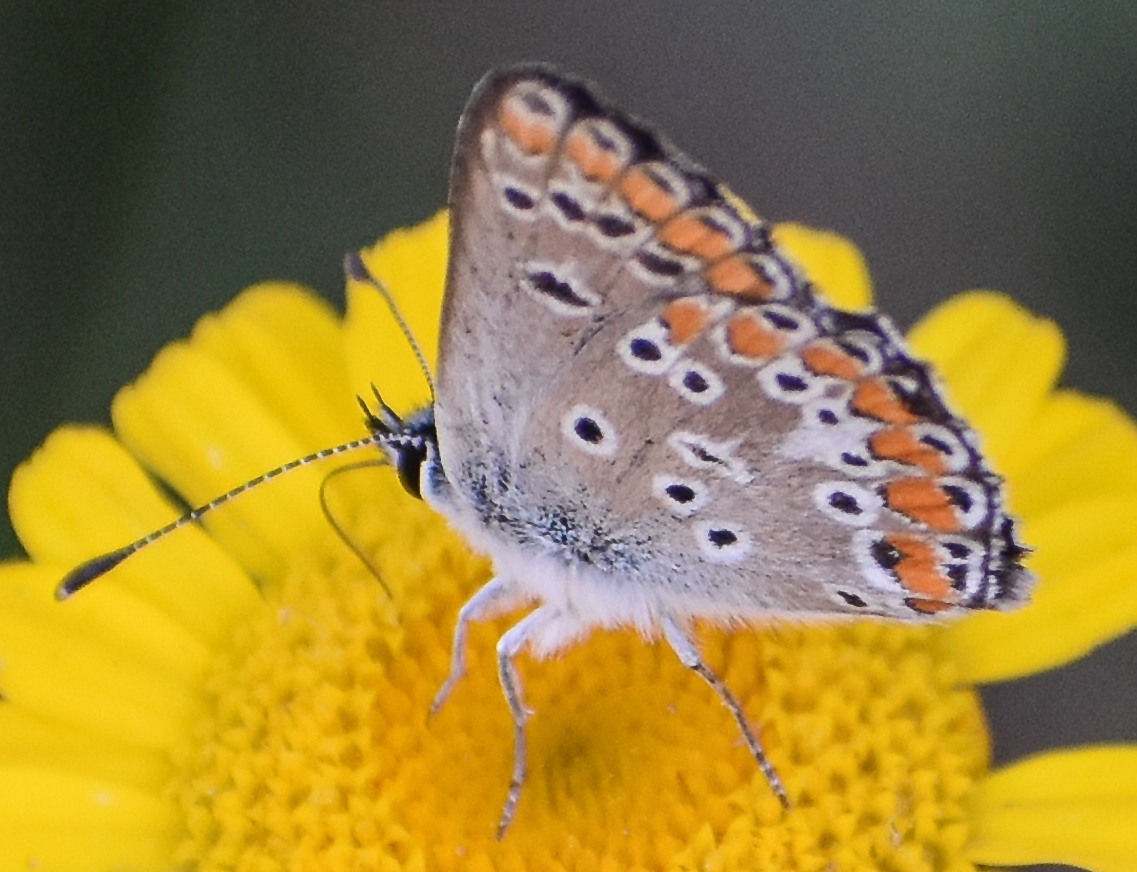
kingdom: Animalia
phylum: Arthropoda
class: Insecta
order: Lepidoptera
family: Lycaenidae
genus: Aricia
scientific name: Aricia agestis
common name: Brown argus
